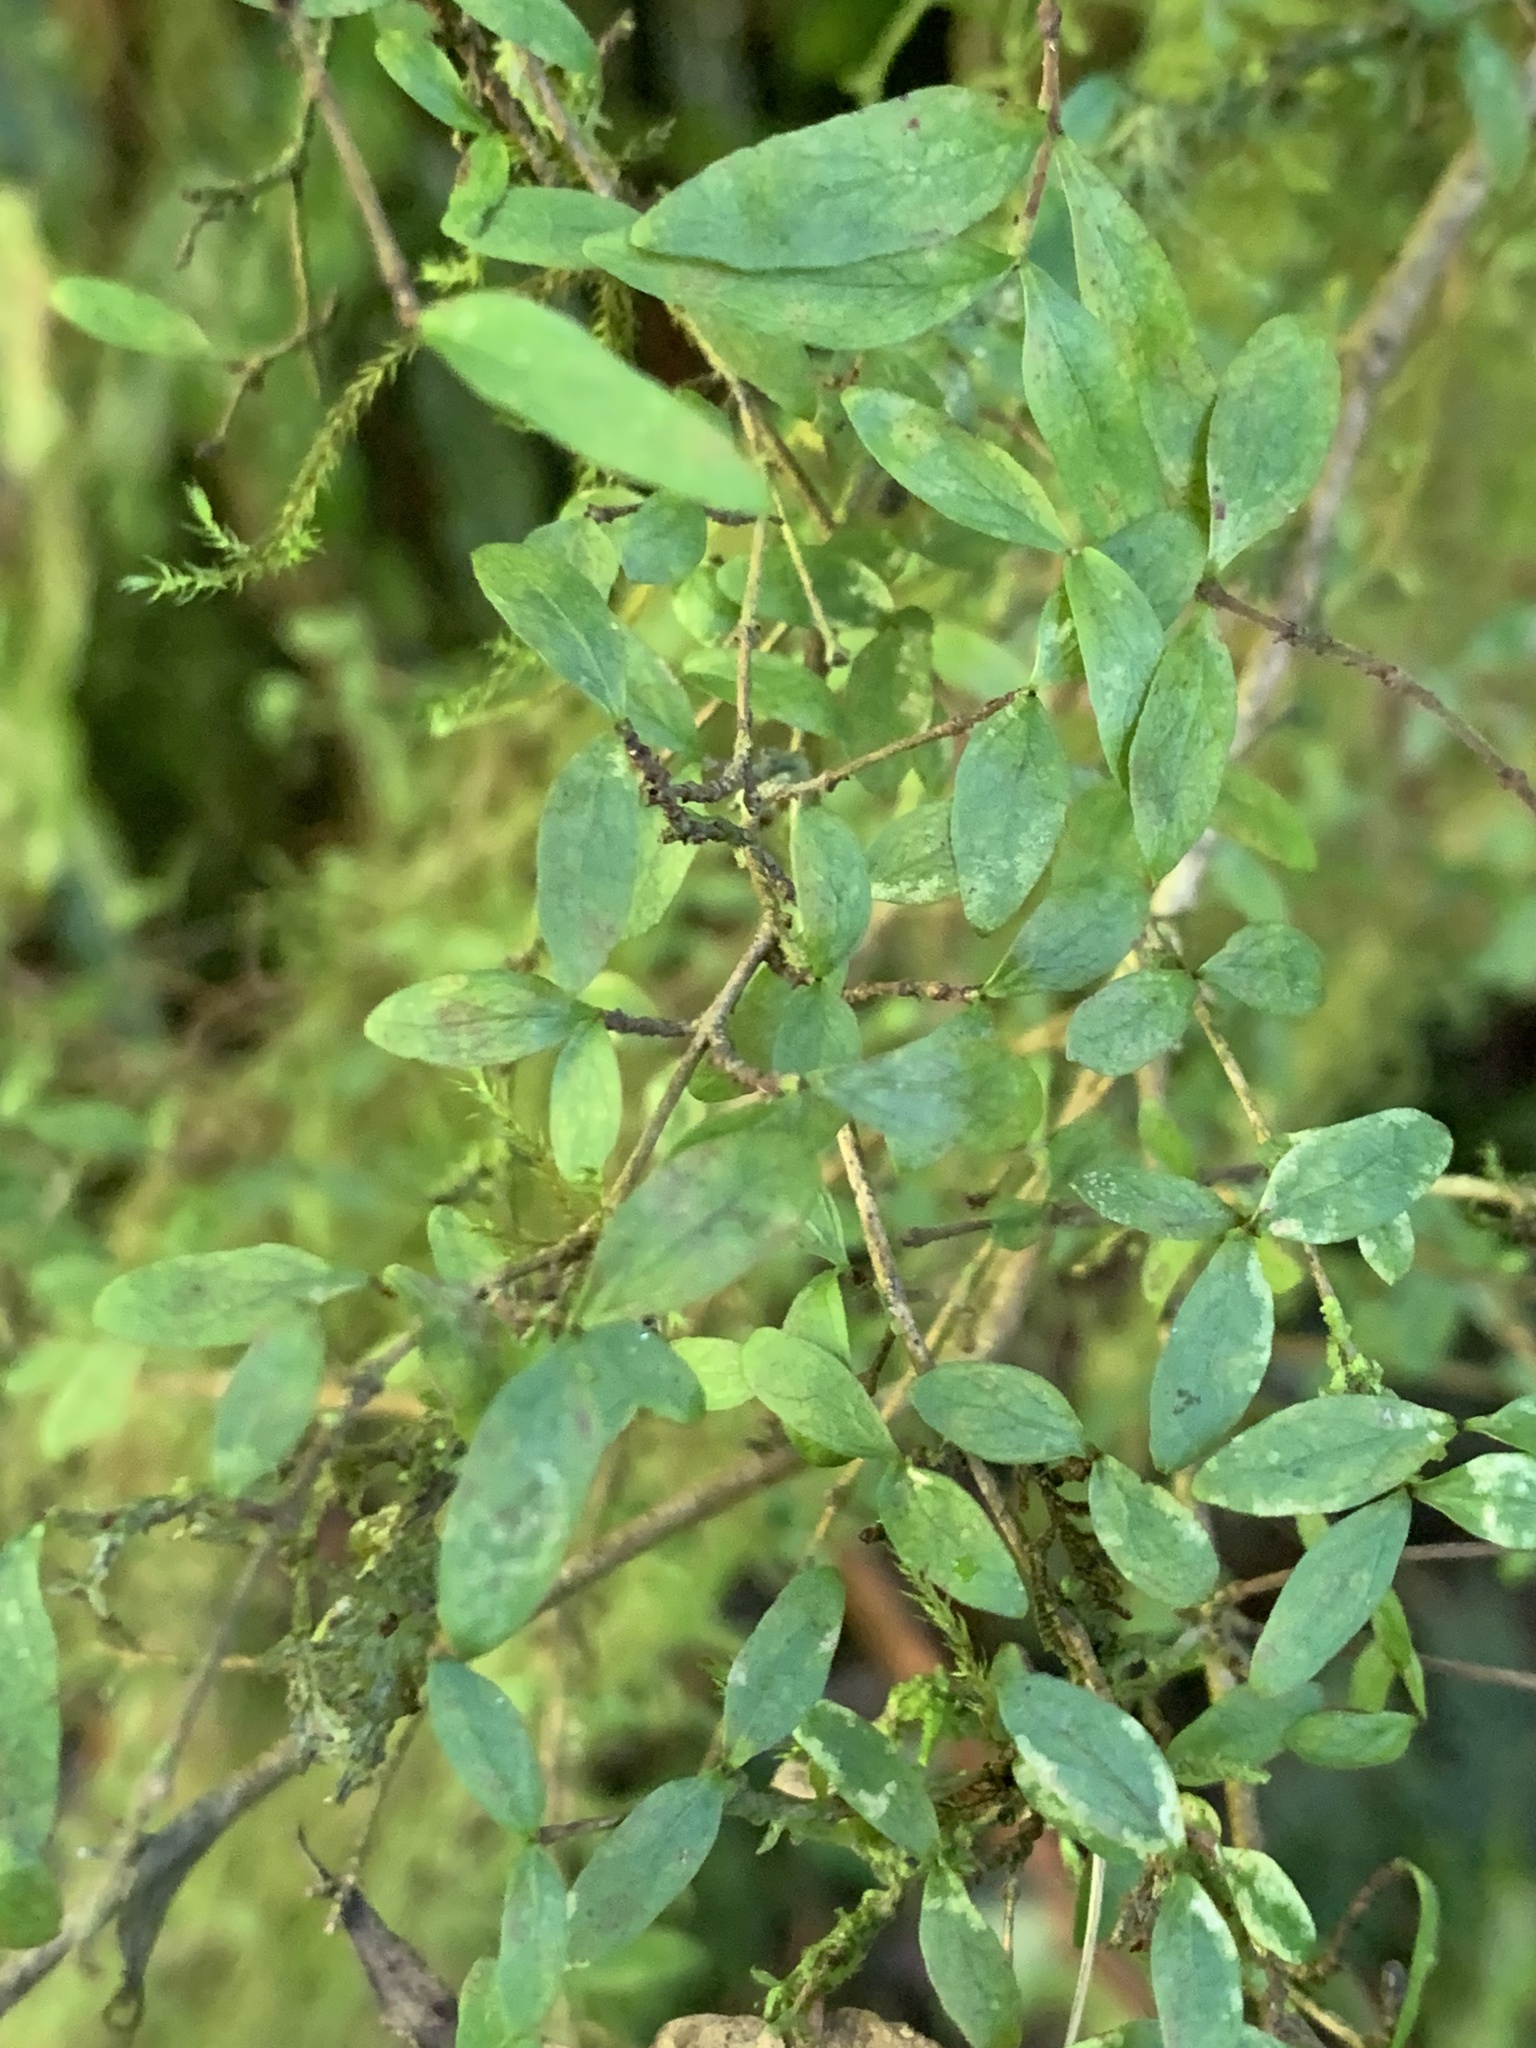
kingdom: Plantae
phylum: Tracheophyta
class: Magnoliopsida
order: Gentianales
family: Rubiaceae
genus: Coprosma
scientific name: Coprosma quadrifida
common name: Prickly currantbush
